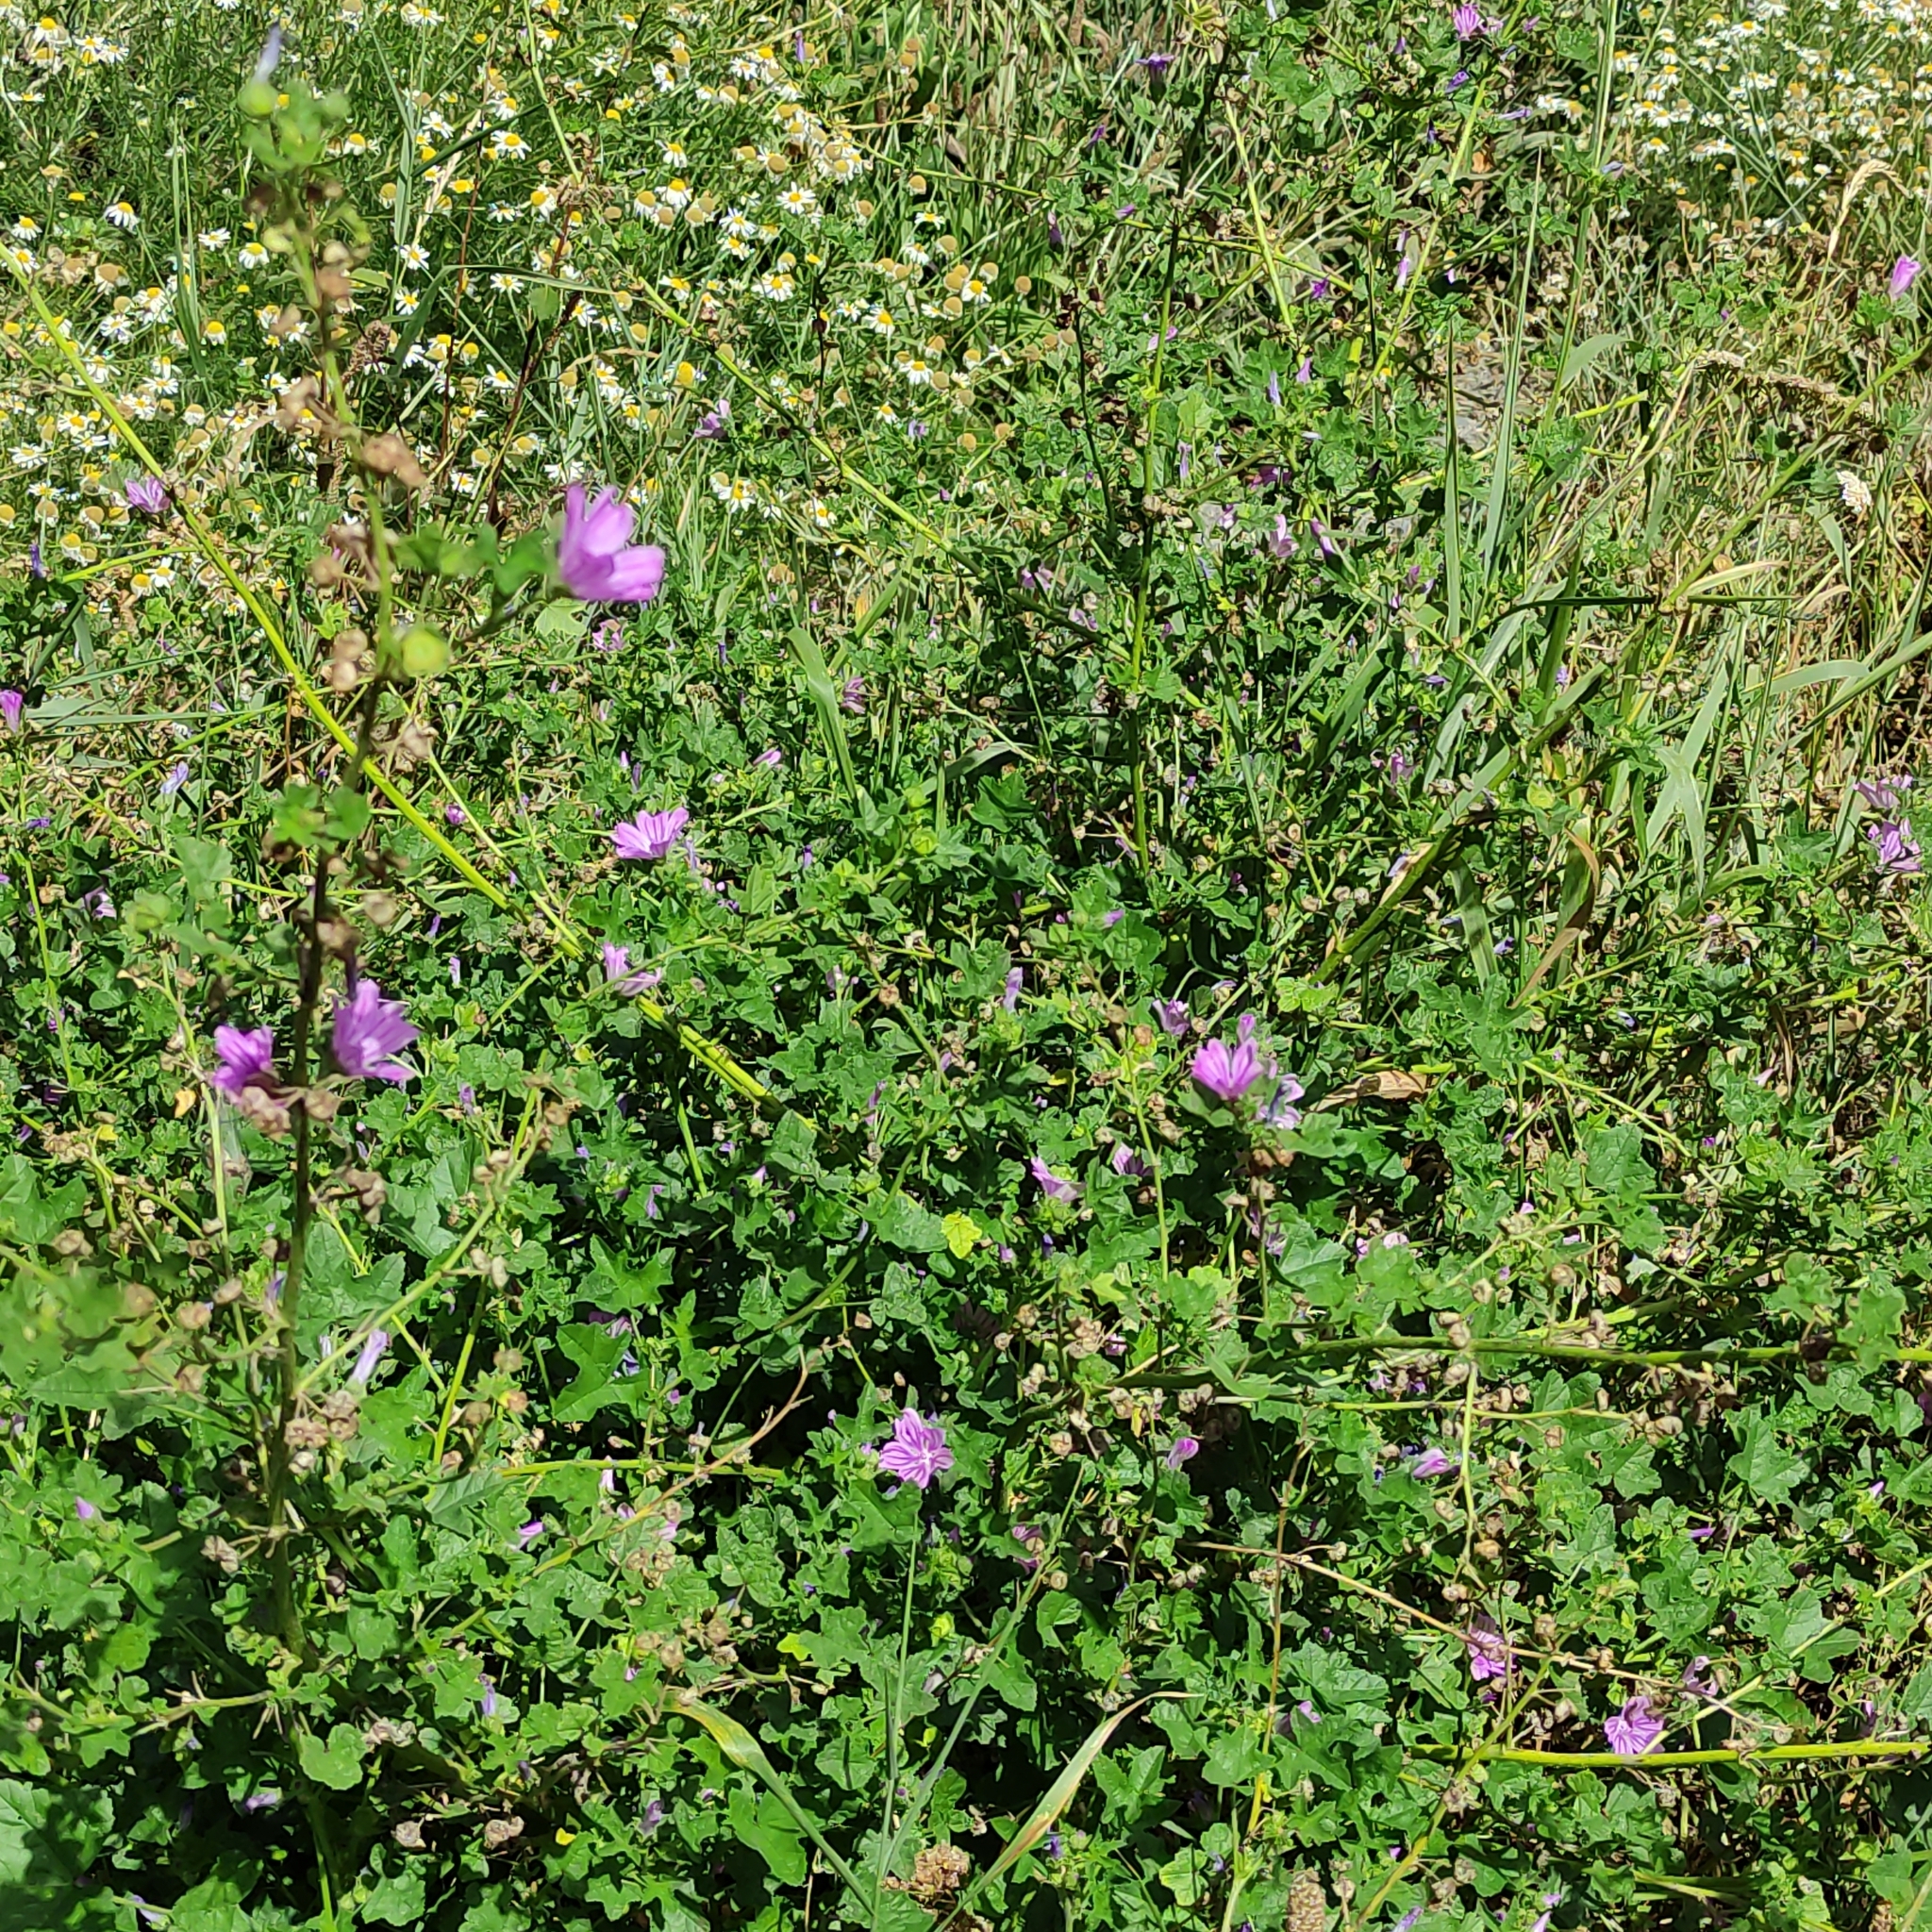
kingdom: Plantae
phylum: Tracheophyta
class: Magnoliopsida
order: Malvales
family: Malvaceae
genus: Malva
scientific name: Malva sylvestris
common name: Common mallow
